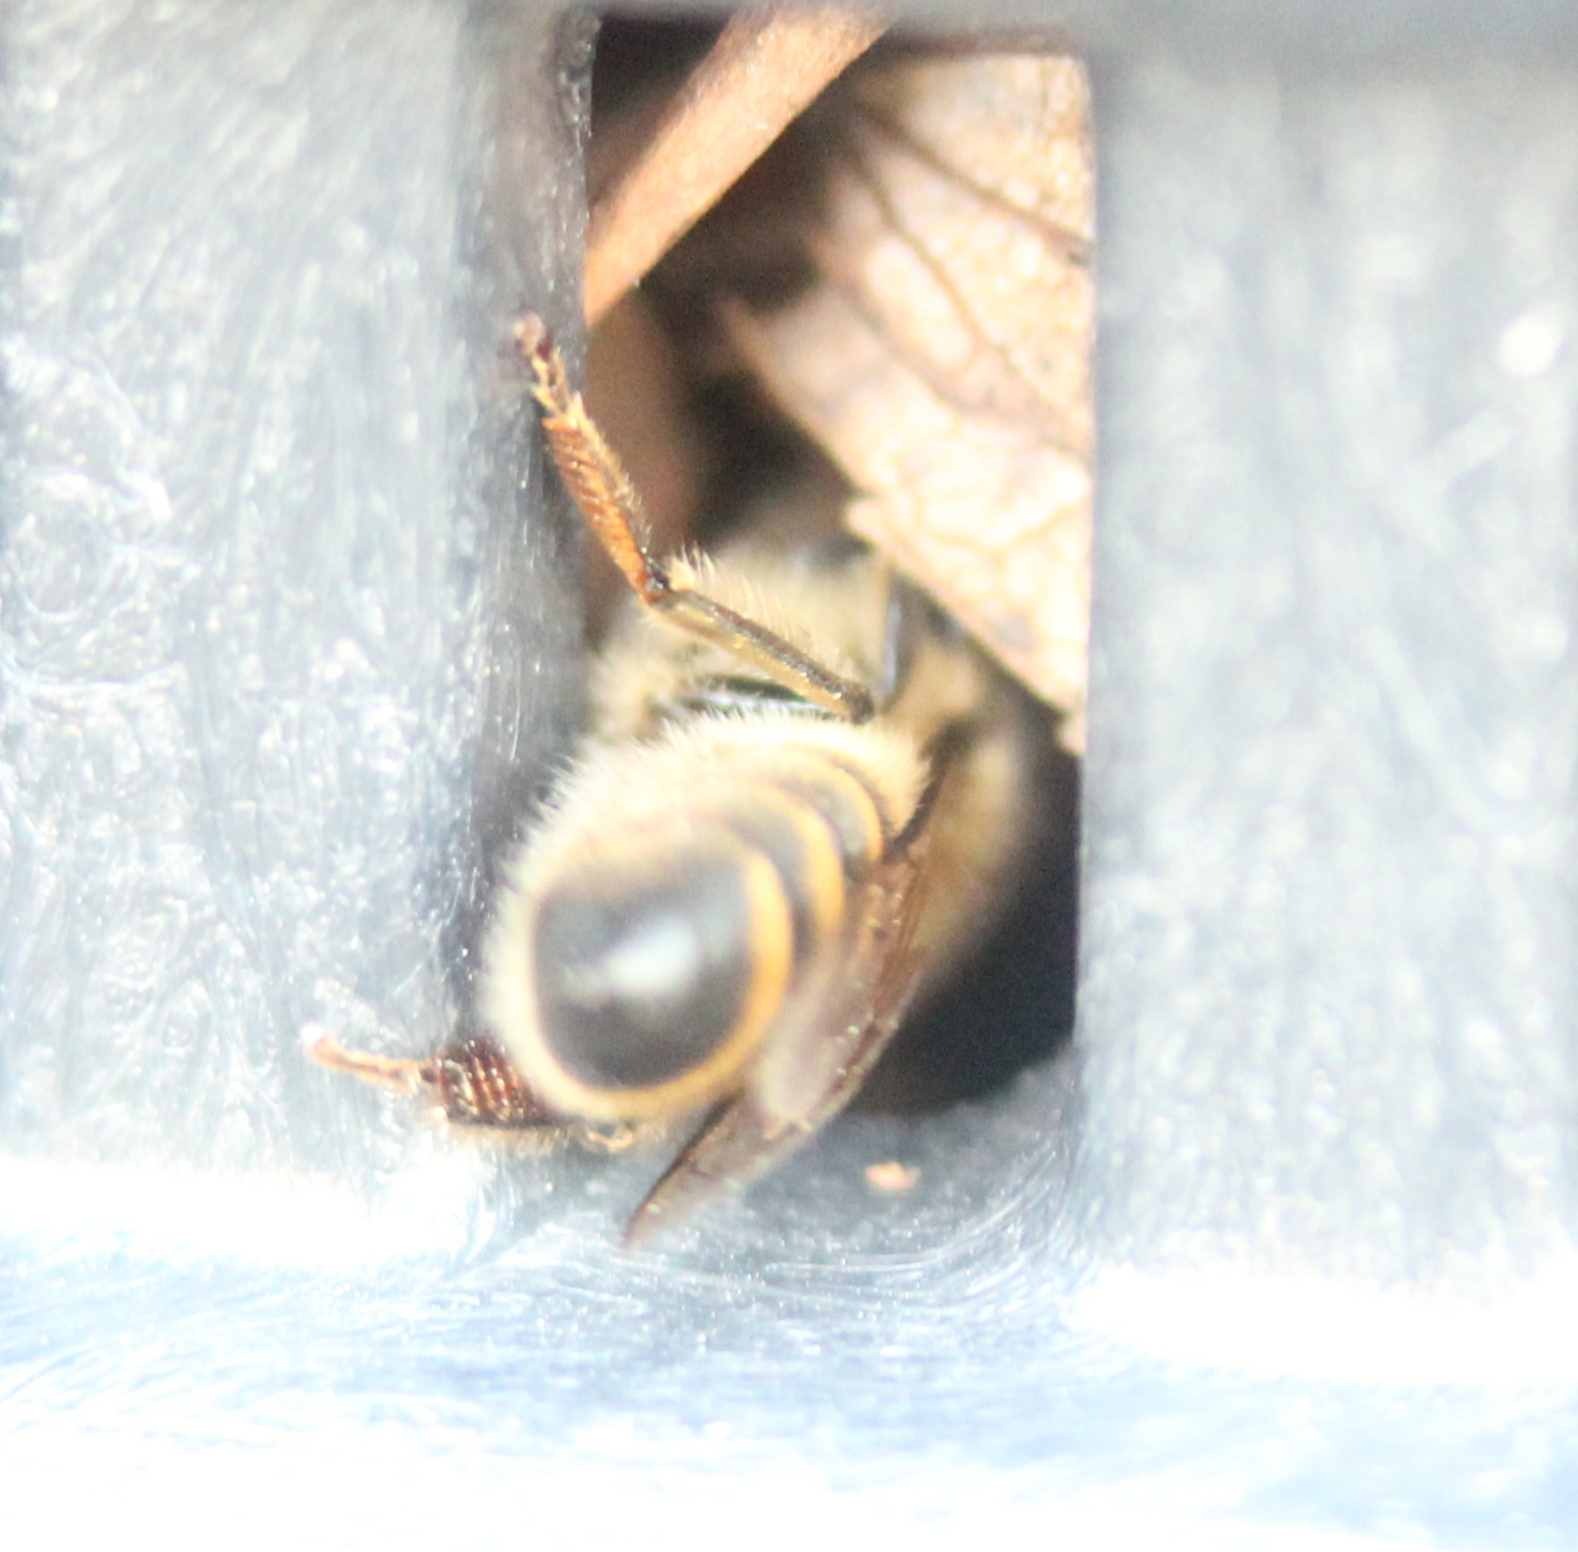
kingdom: Animalia
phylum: Arthropoda
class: Insecta
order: Hymenoptera
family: Apidae
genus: Apis
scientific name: Apis mellifera
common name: Honey bee
